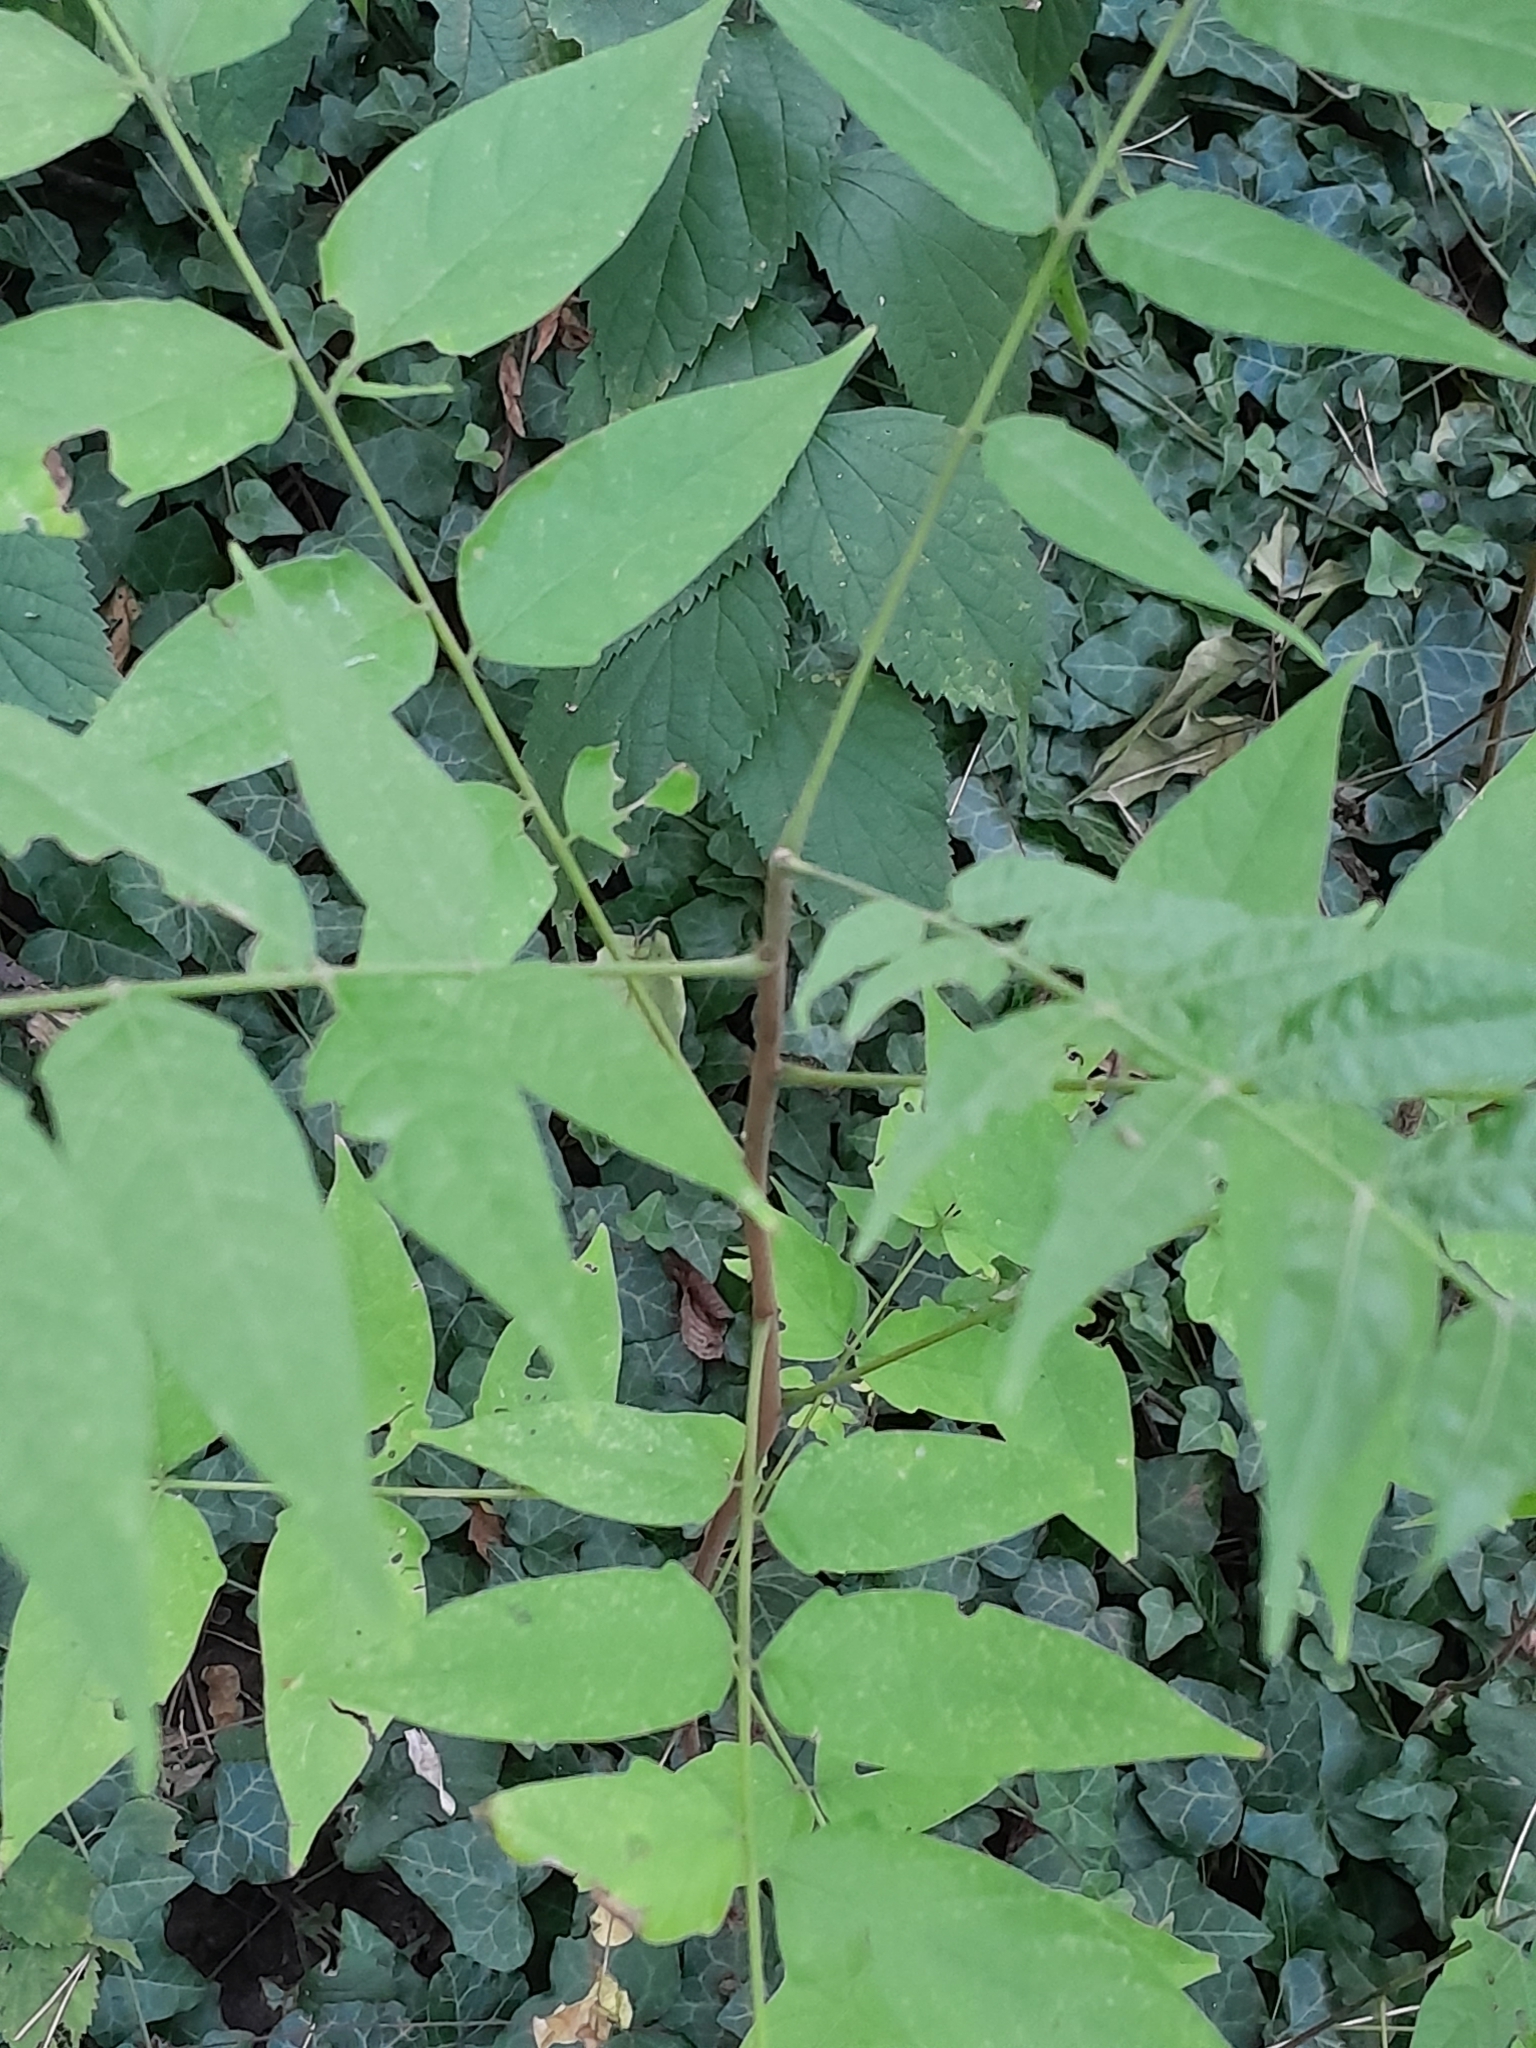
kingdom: Plantae
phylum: Tracheophyta
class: Magnoliopsida
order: Sapindales
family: Simaroubaceae
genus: Ailanthus
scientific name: Ailanthus altissima
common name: Tree-of-heaven
